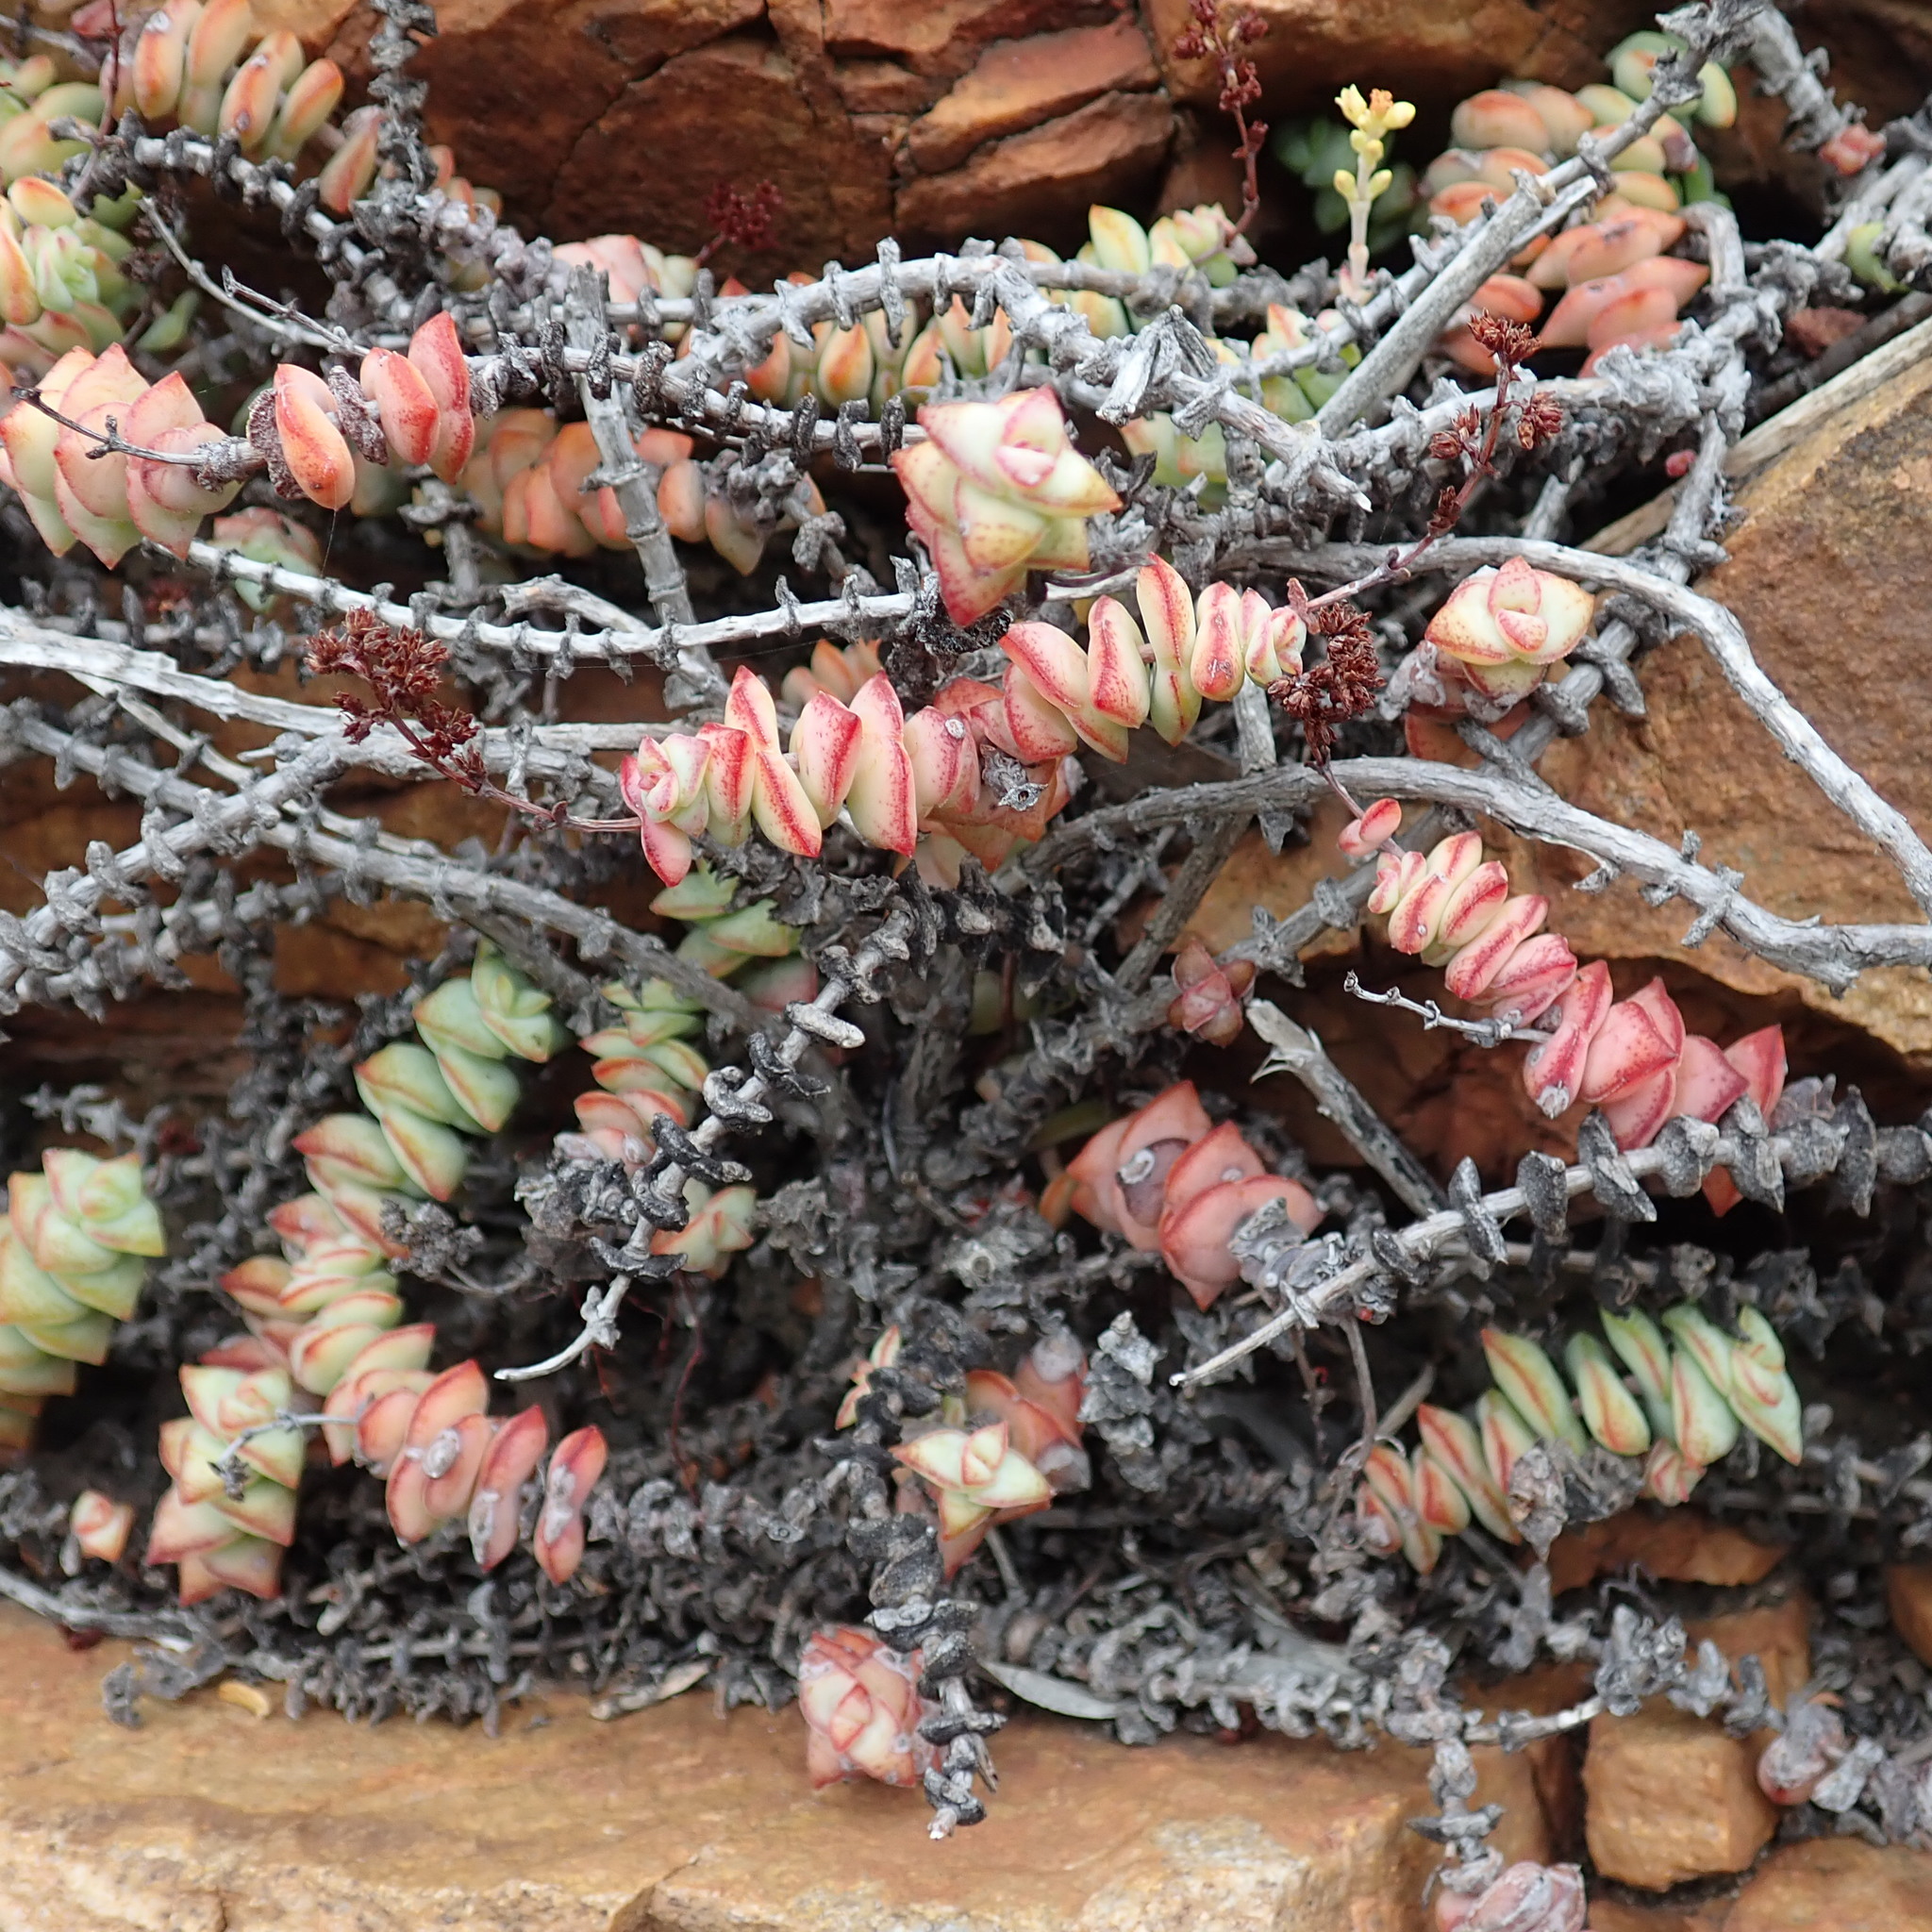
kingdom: Plantae
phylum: Tracheophyta
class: Magnoliopsida
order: Saxifragales
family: Crassulaceae
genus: Crassula
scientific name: Crassula perforata
